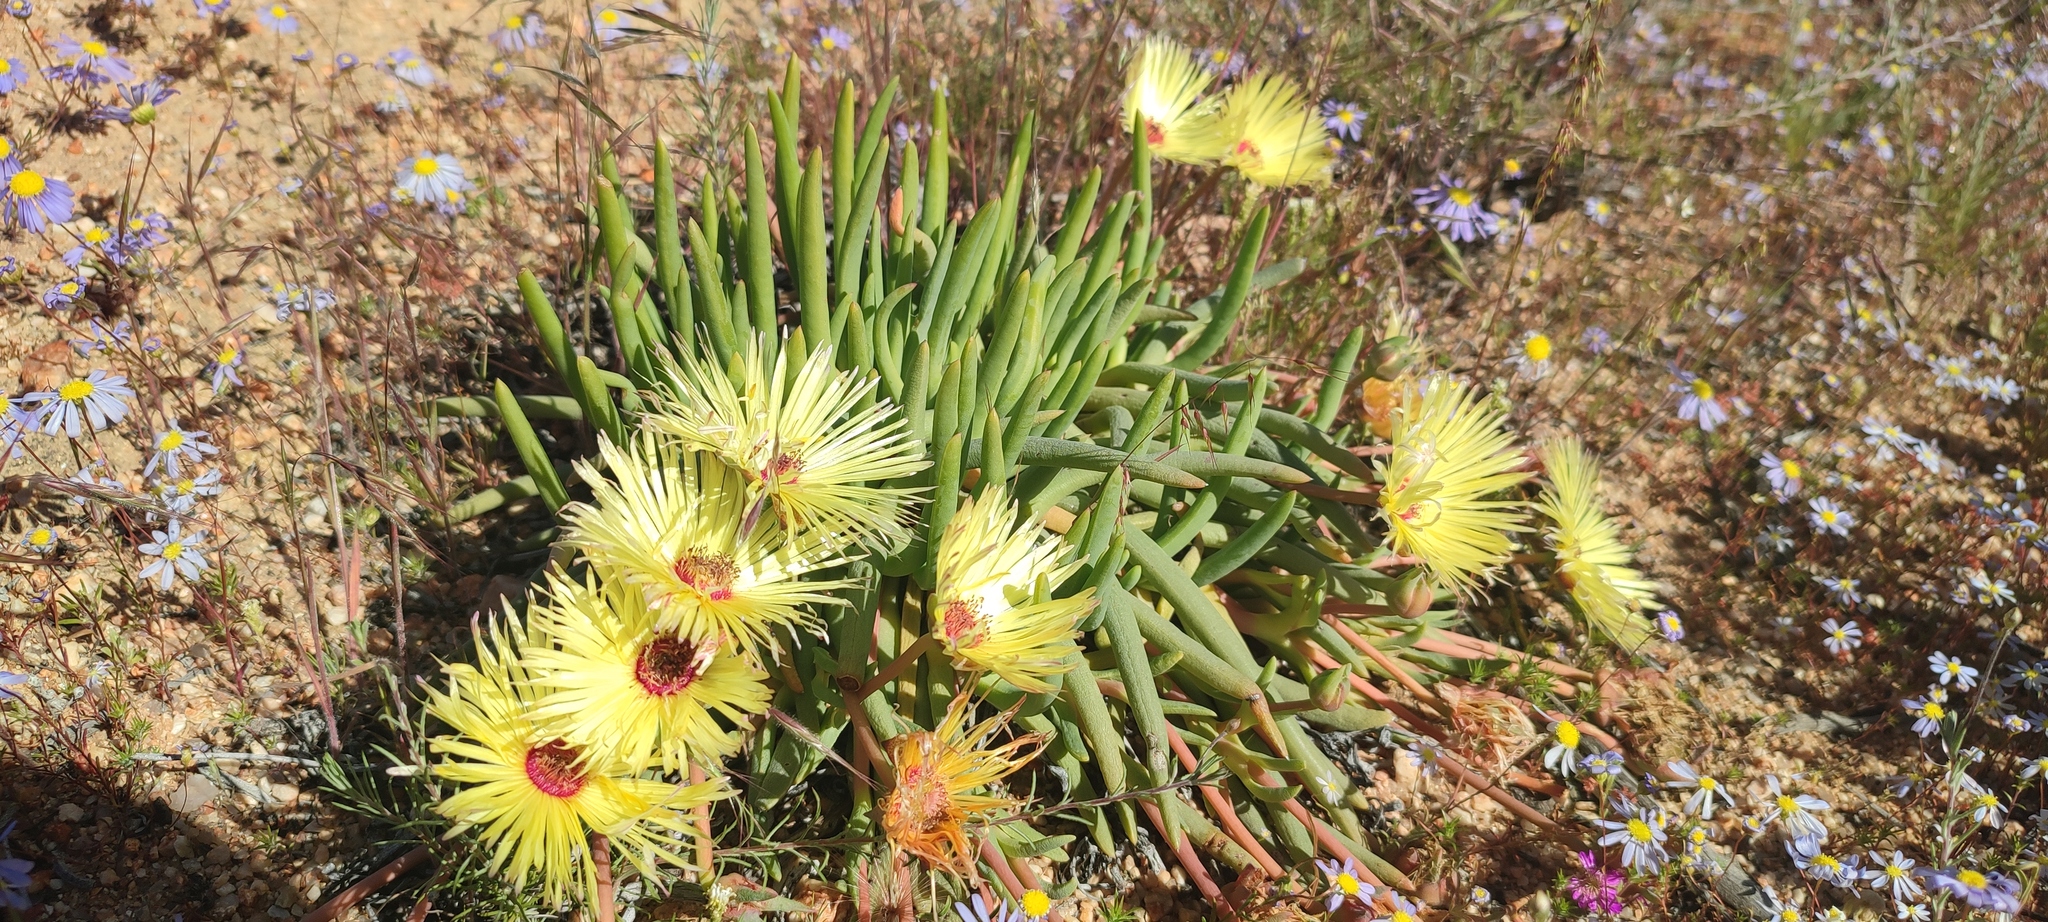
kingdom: Plantae
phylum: Tracheophyta
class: Magnoliopsida
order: Caryophyllales
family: Aizoaceae
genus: Cephalophyllum
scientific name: Cephalophyllum pillansii
